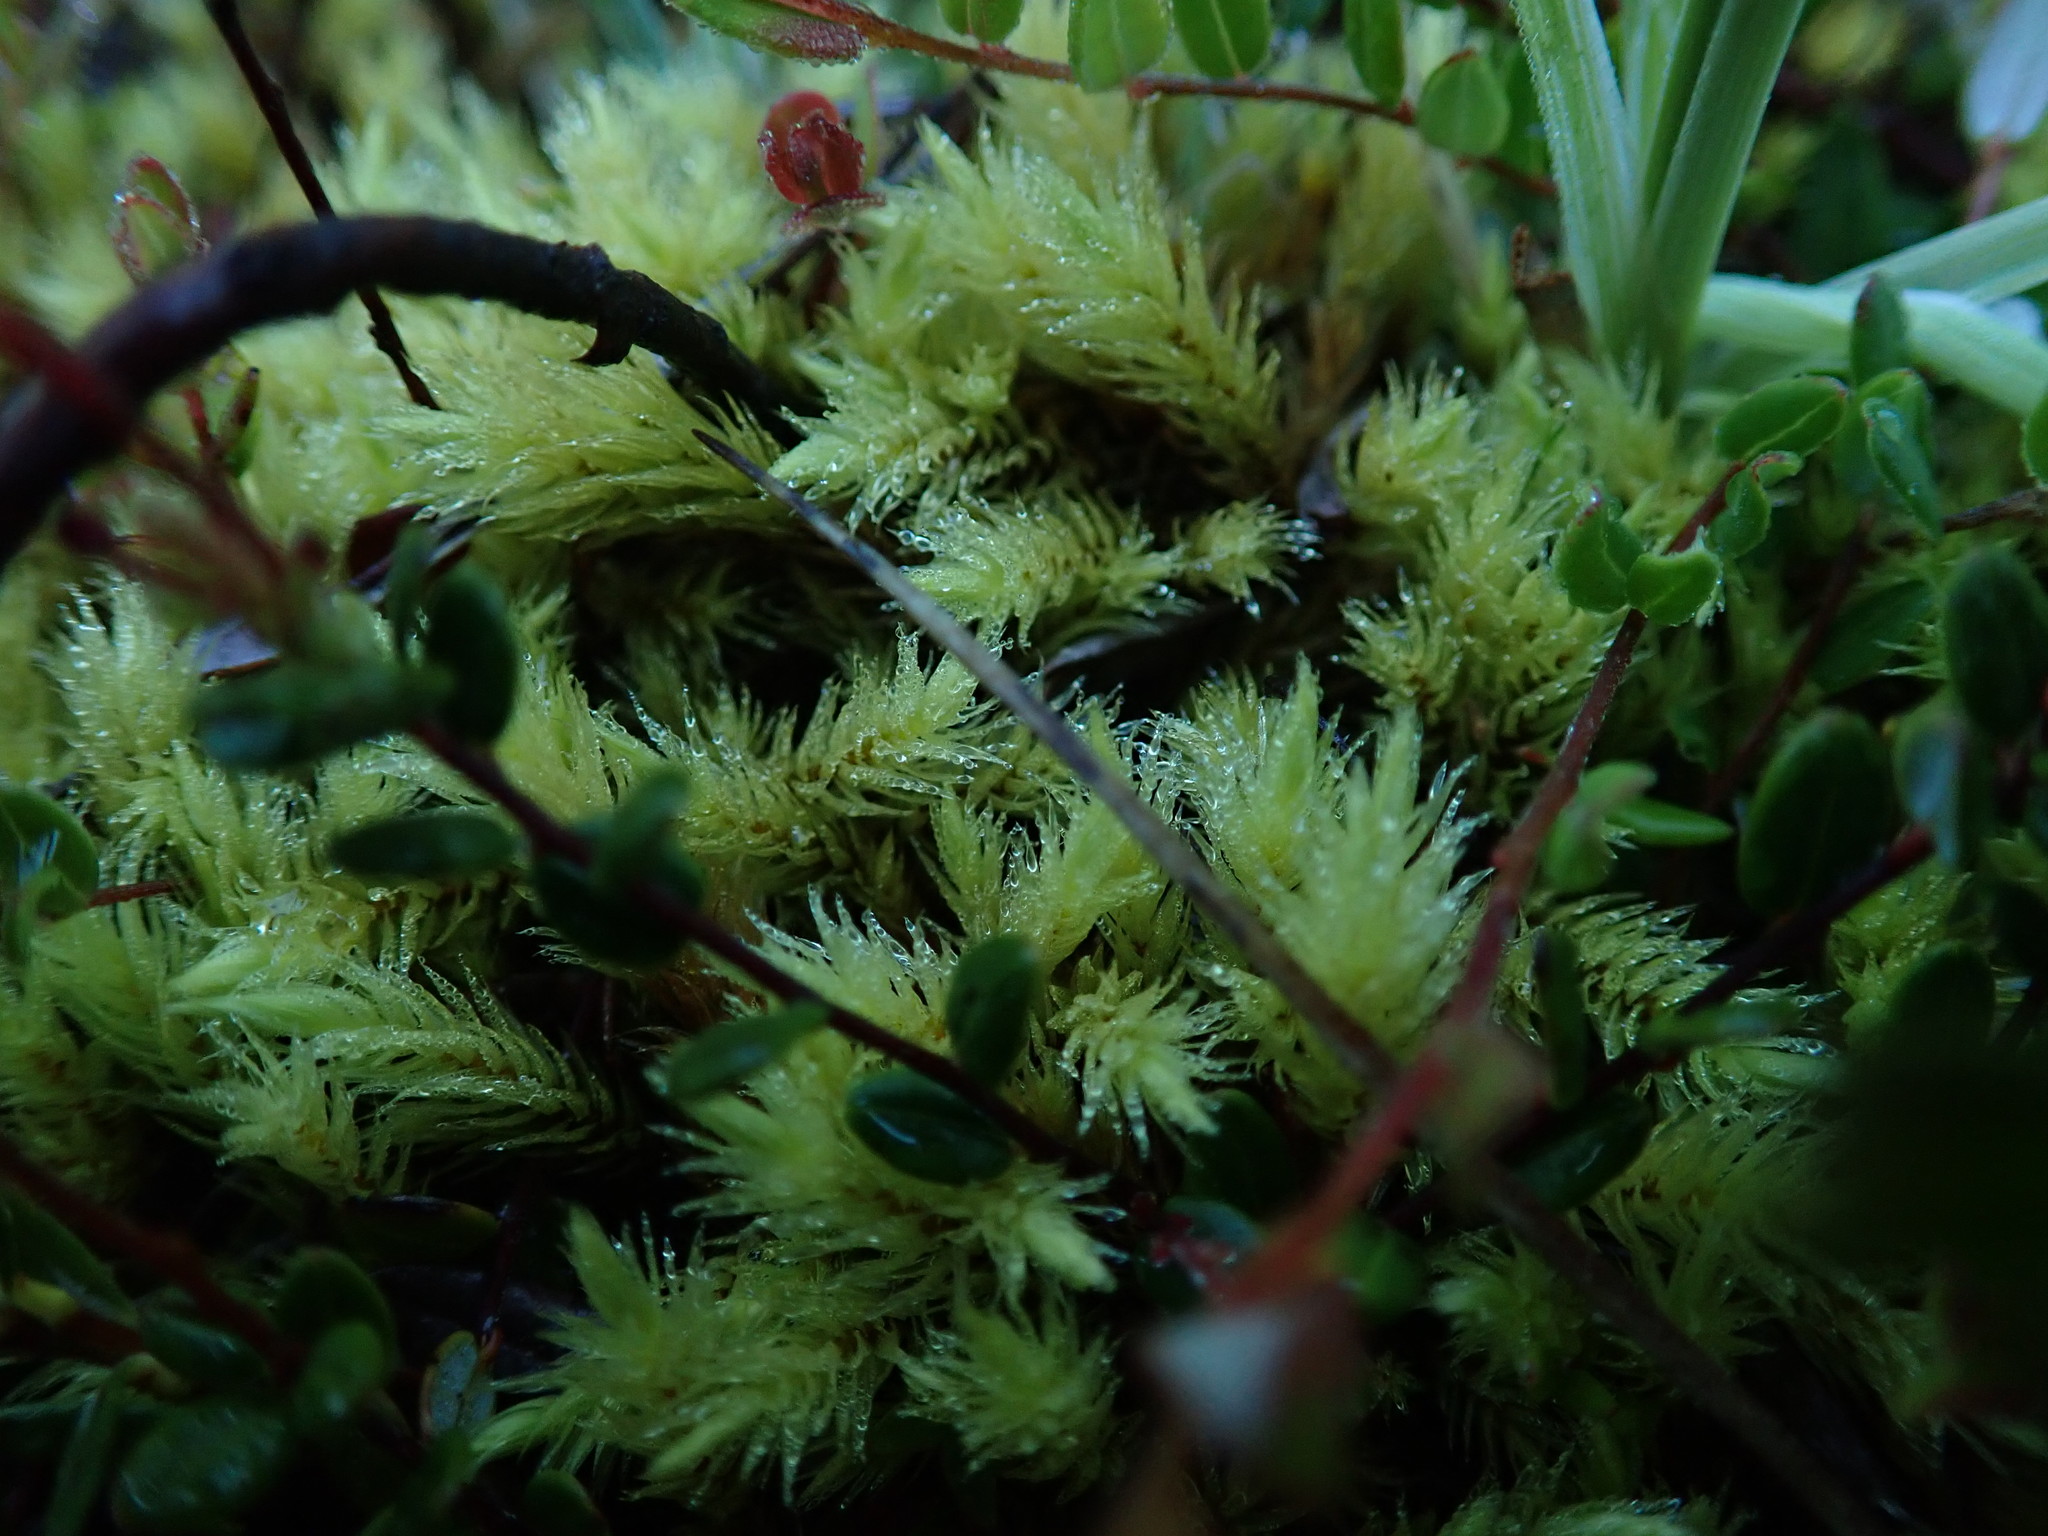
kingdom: Plantae
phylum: Bryophyta
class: Bryopsida
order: Aulacomniales
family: Aulacomniaceae
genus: Aulacomnium
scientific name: Aulacomnium palustre
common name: Bog groove-moss
